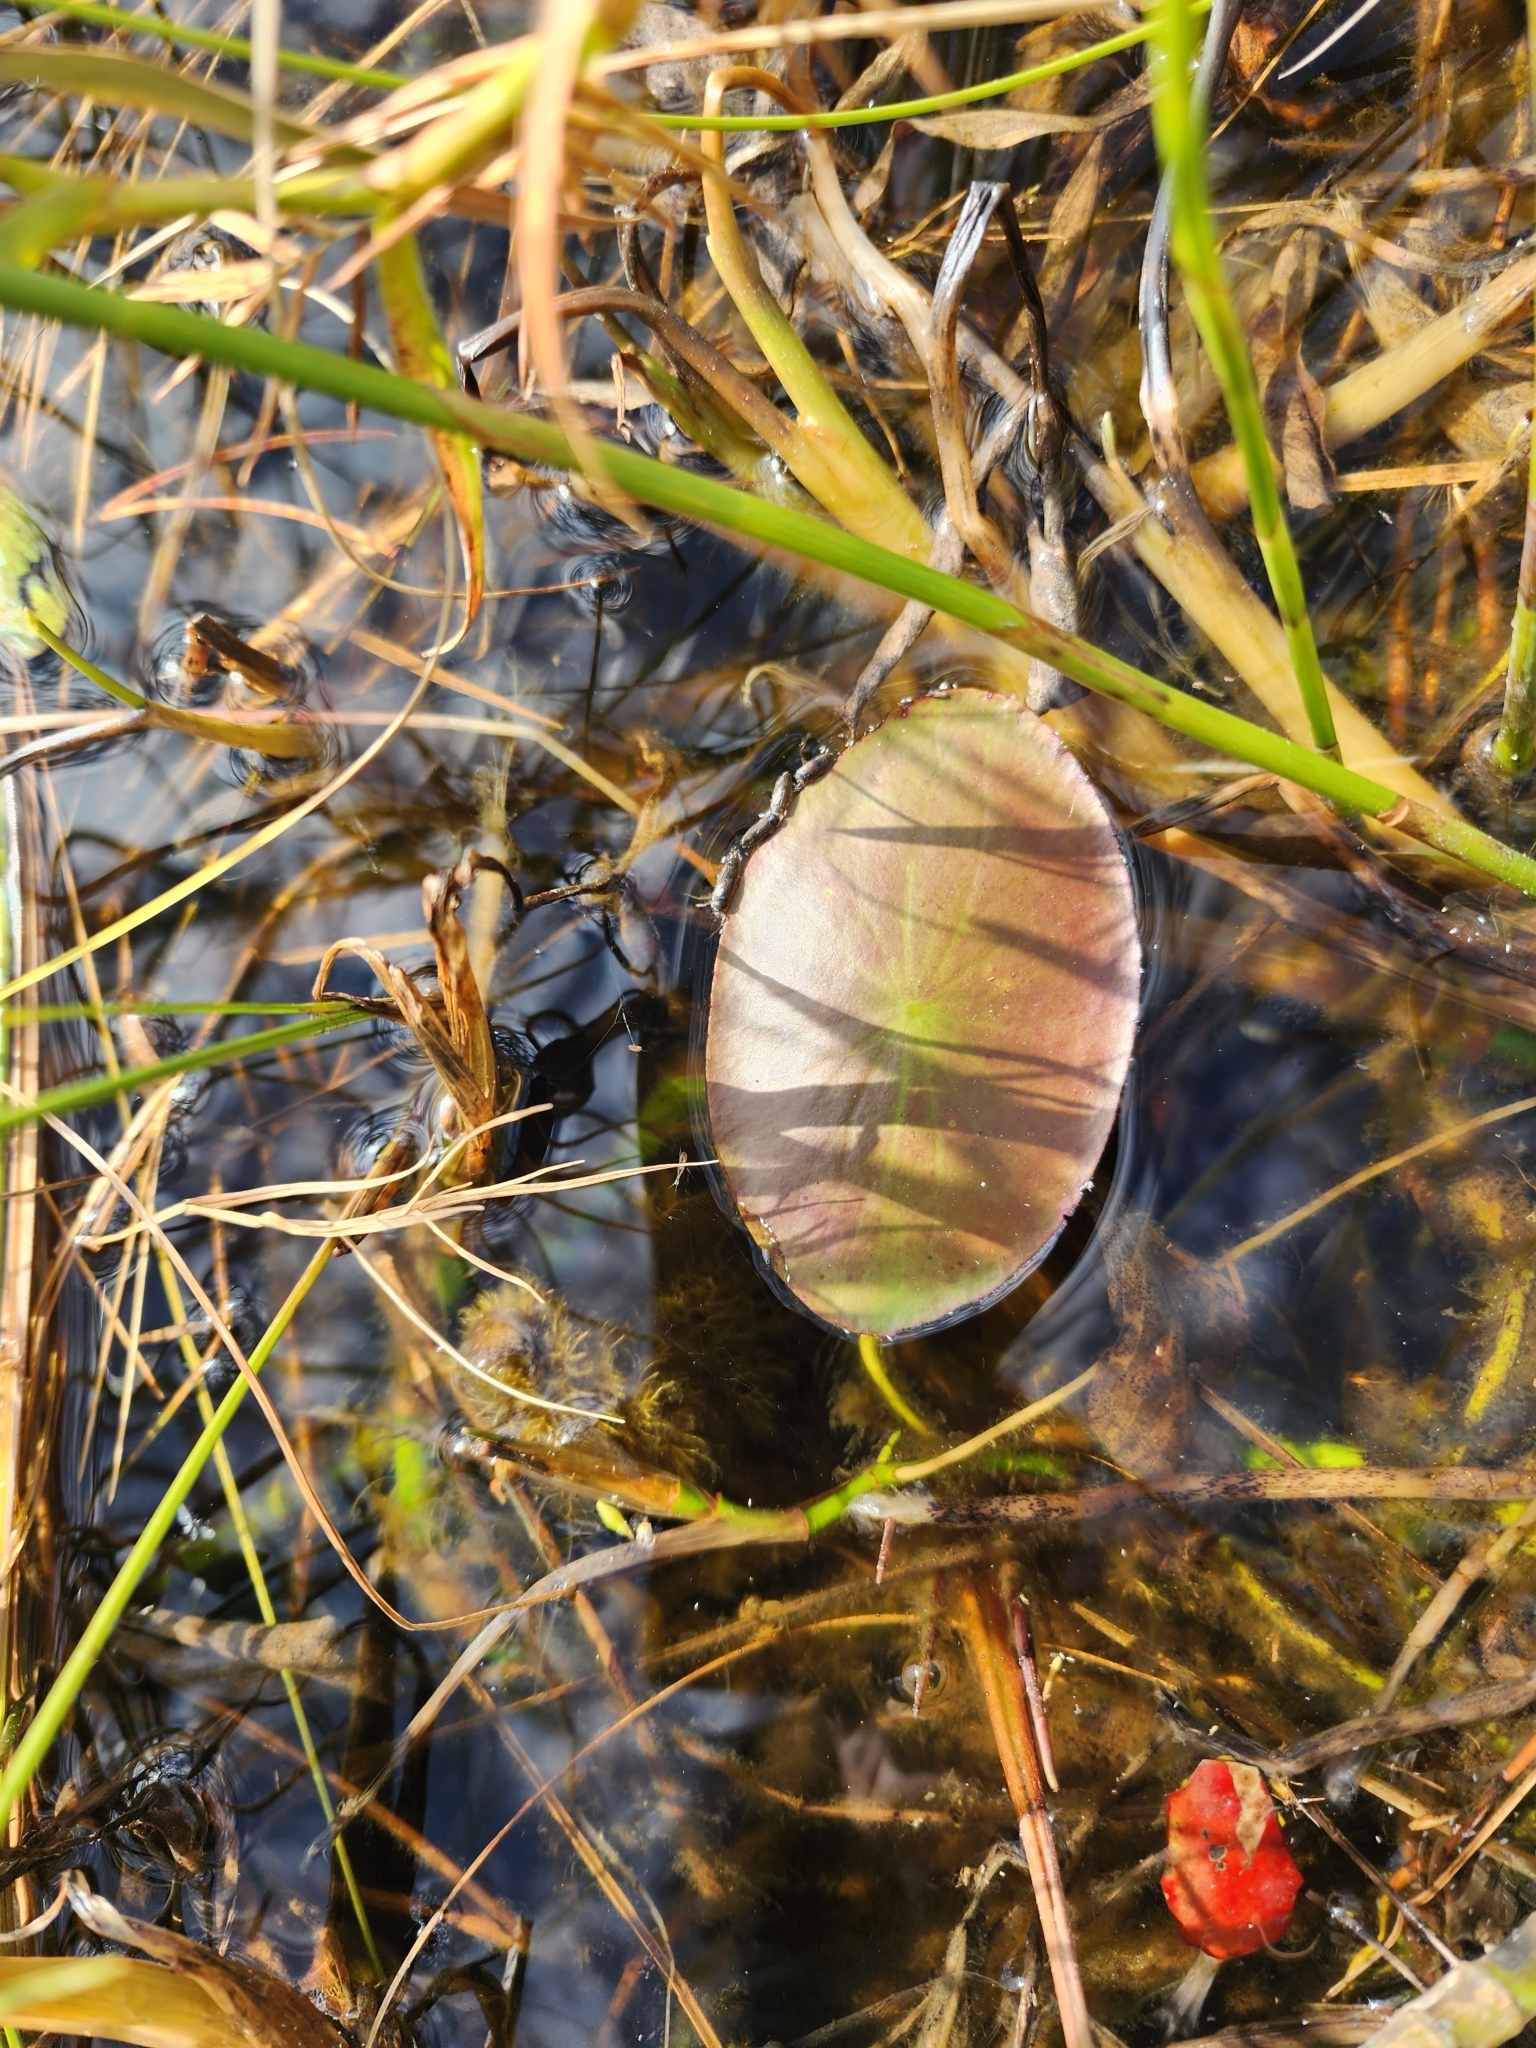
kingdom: Plantae
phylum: Tracheophyta
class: Magnoliopsida
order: Nymphaeales
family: Cabombaceae
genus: Brasenia
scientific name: Brasenia schreberi
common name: Water-shield
